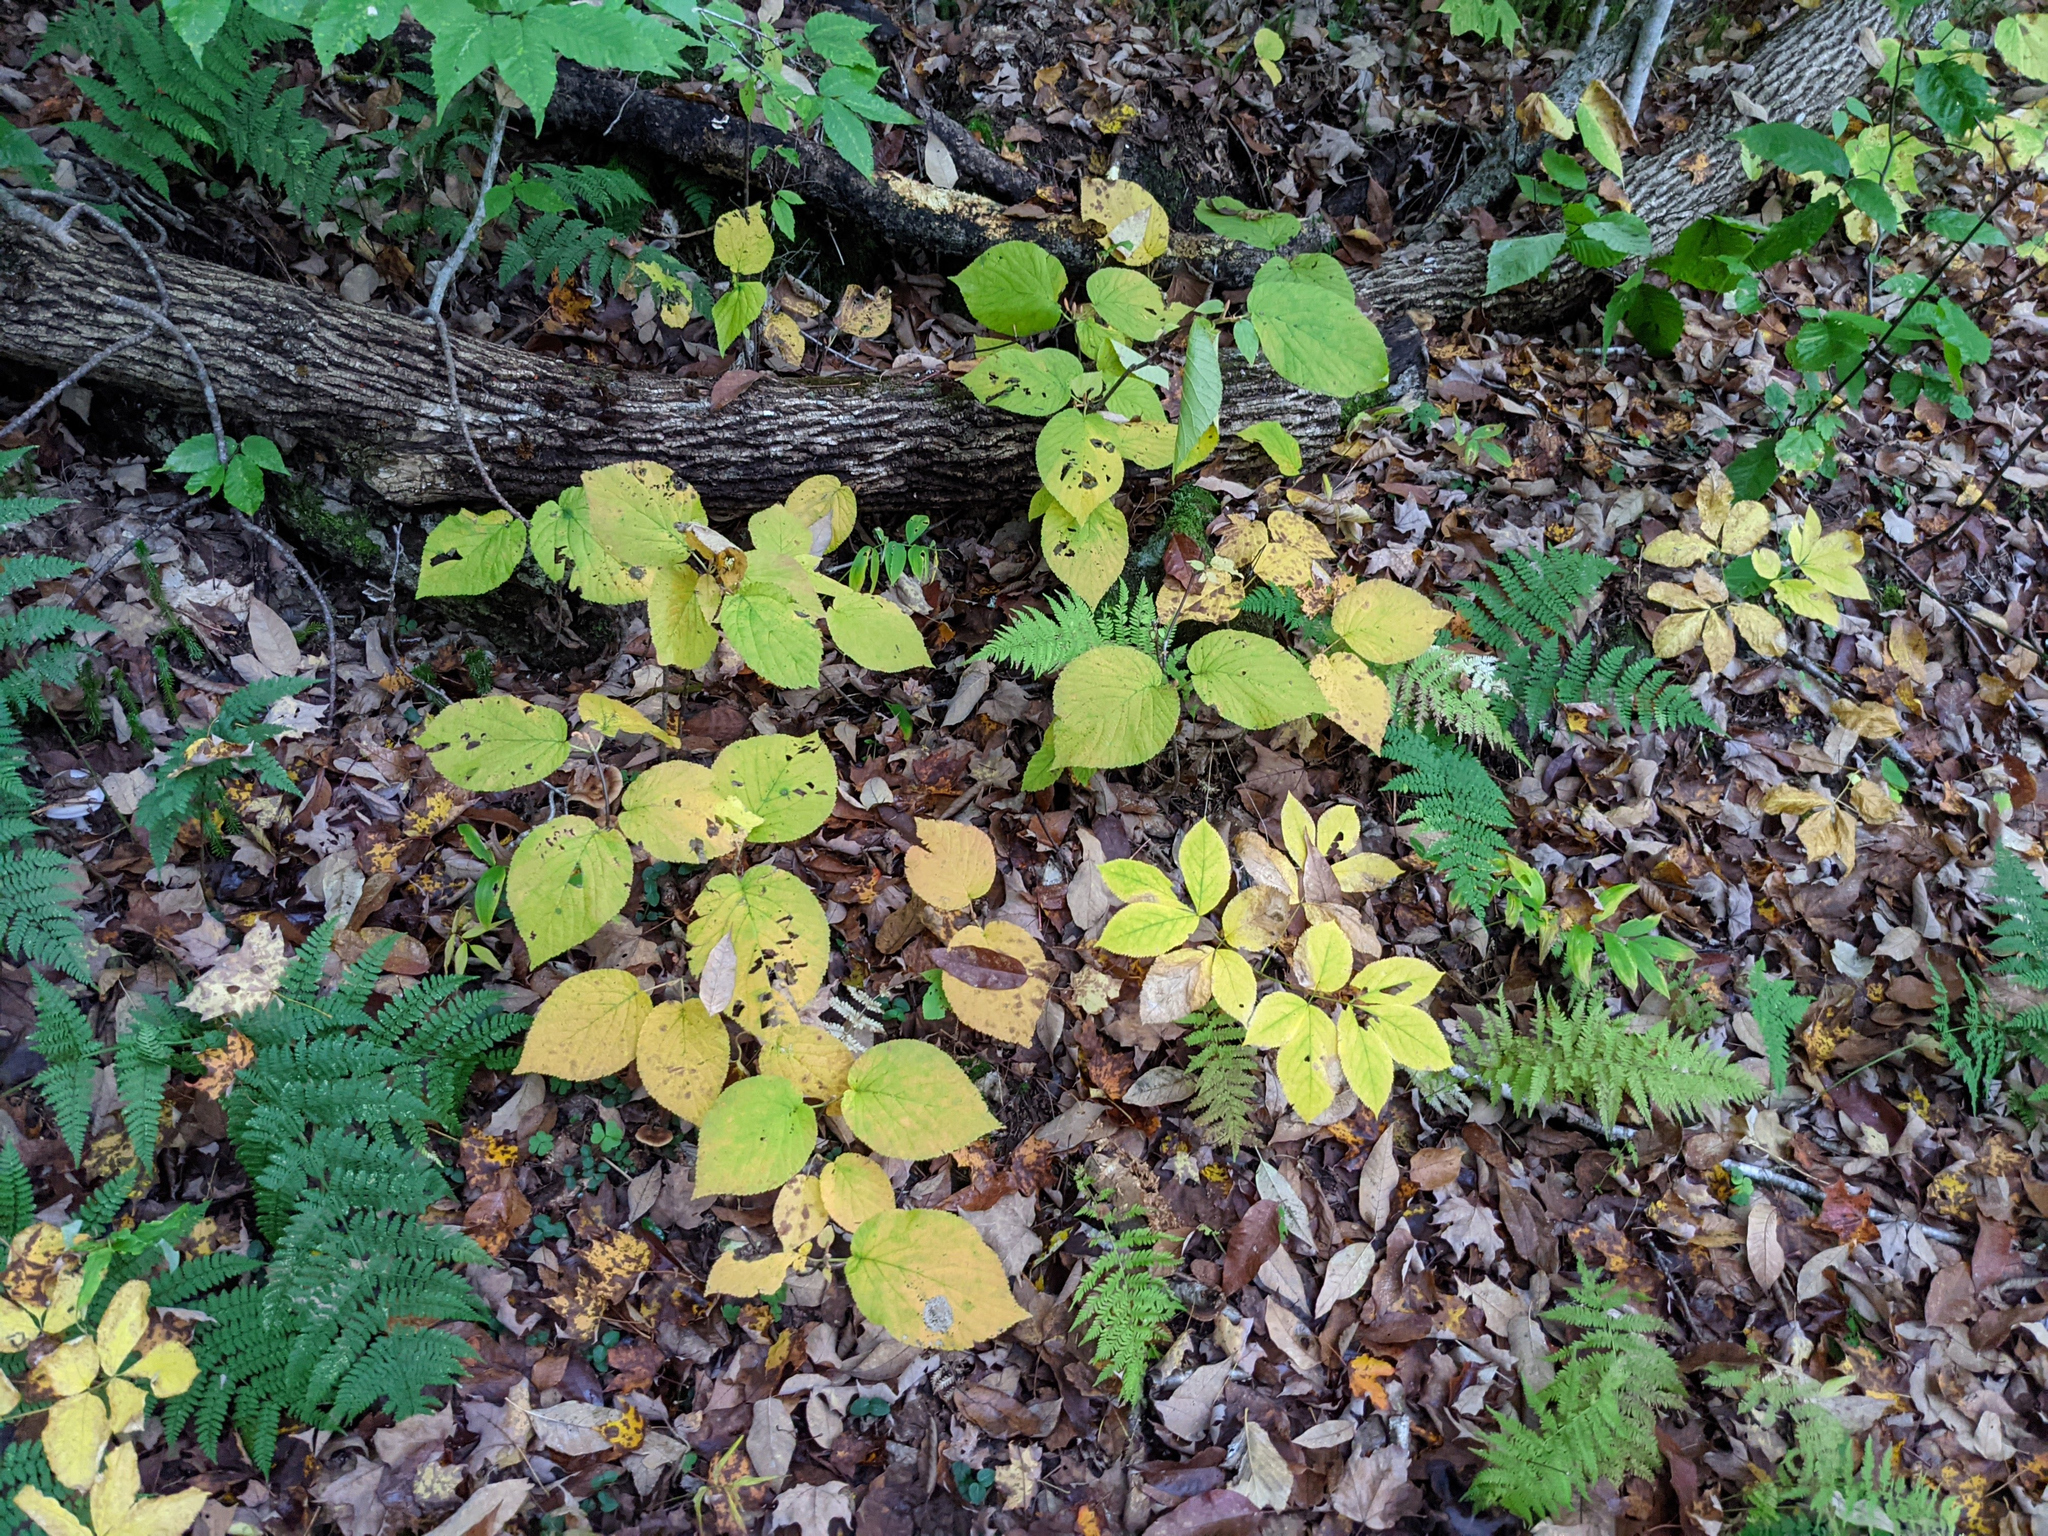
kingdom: Plantae
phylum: Tracheophyta
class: Magnoliopsida
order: Dipsacales
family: Viburnaceae
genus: Viburnum
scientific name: Viburnum lantanoides
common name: Hobblebush
